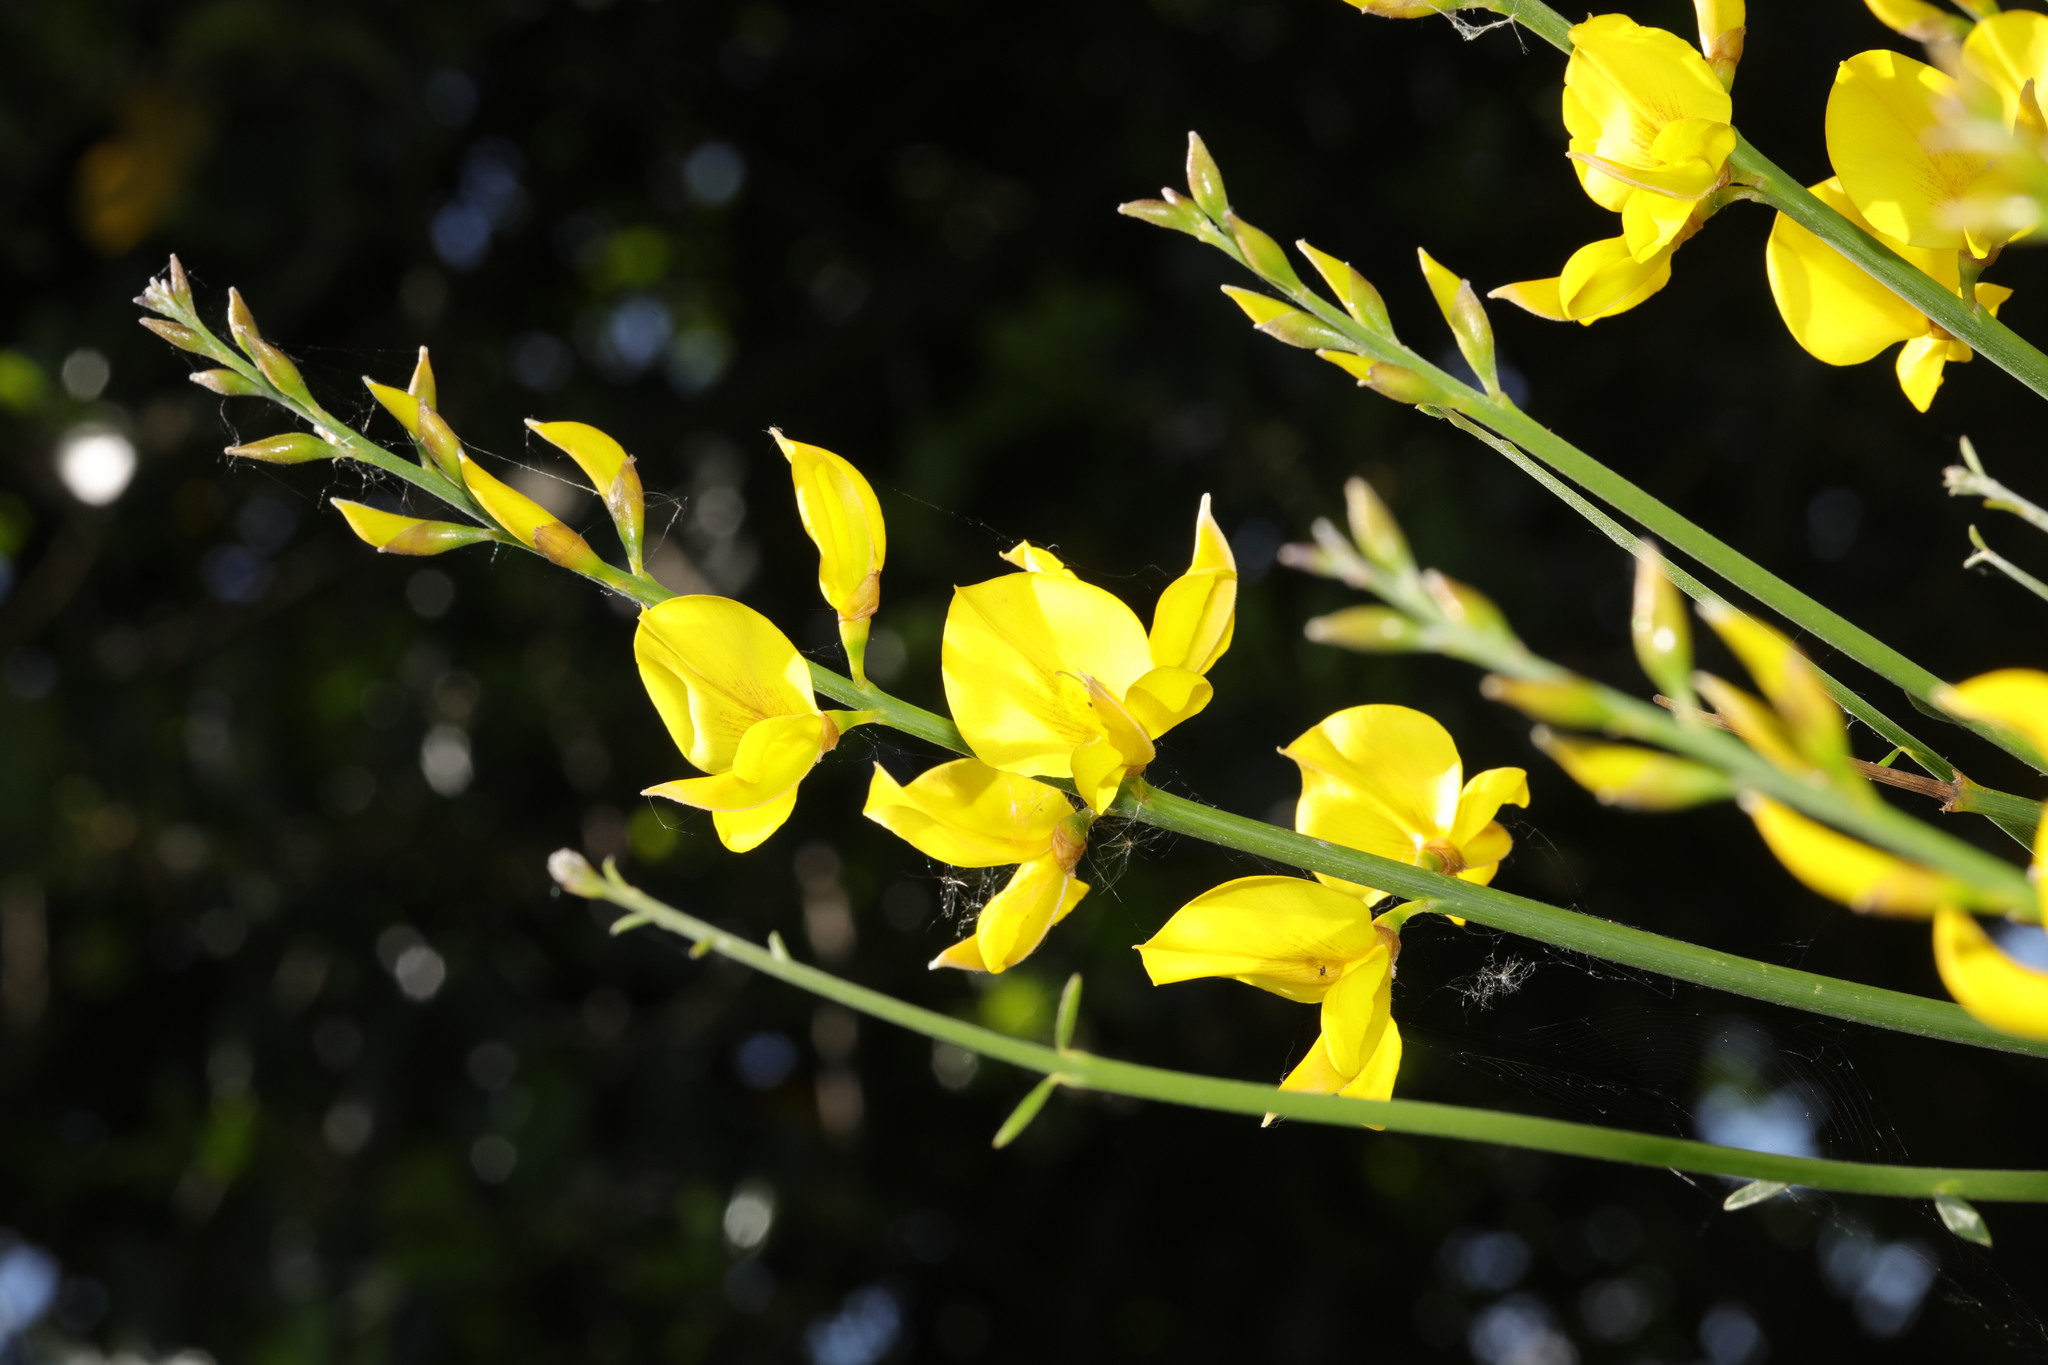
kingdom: Plantae
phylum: Tracheophyta
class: Magnoliopsida
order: Fabales
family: Fabaceae
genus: Spartium
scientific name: Spartium junceum
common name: Spanish broom
